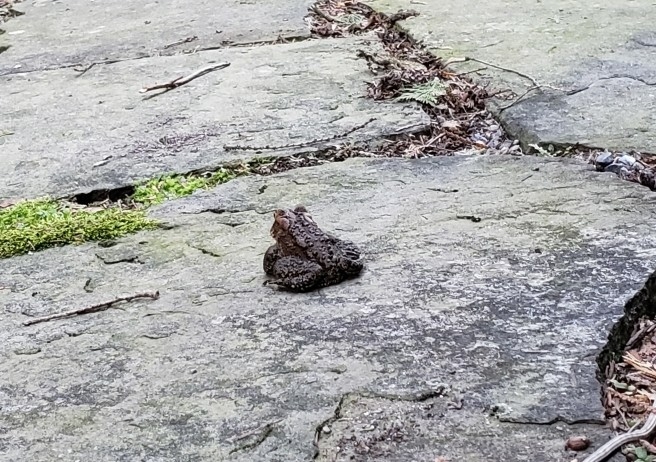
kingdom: Animalia
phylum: Chordata
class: Amphibia
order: Anura
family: Bufonidae
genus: Anaxyrus
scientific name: Anaxyrus americanus
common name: American toad
